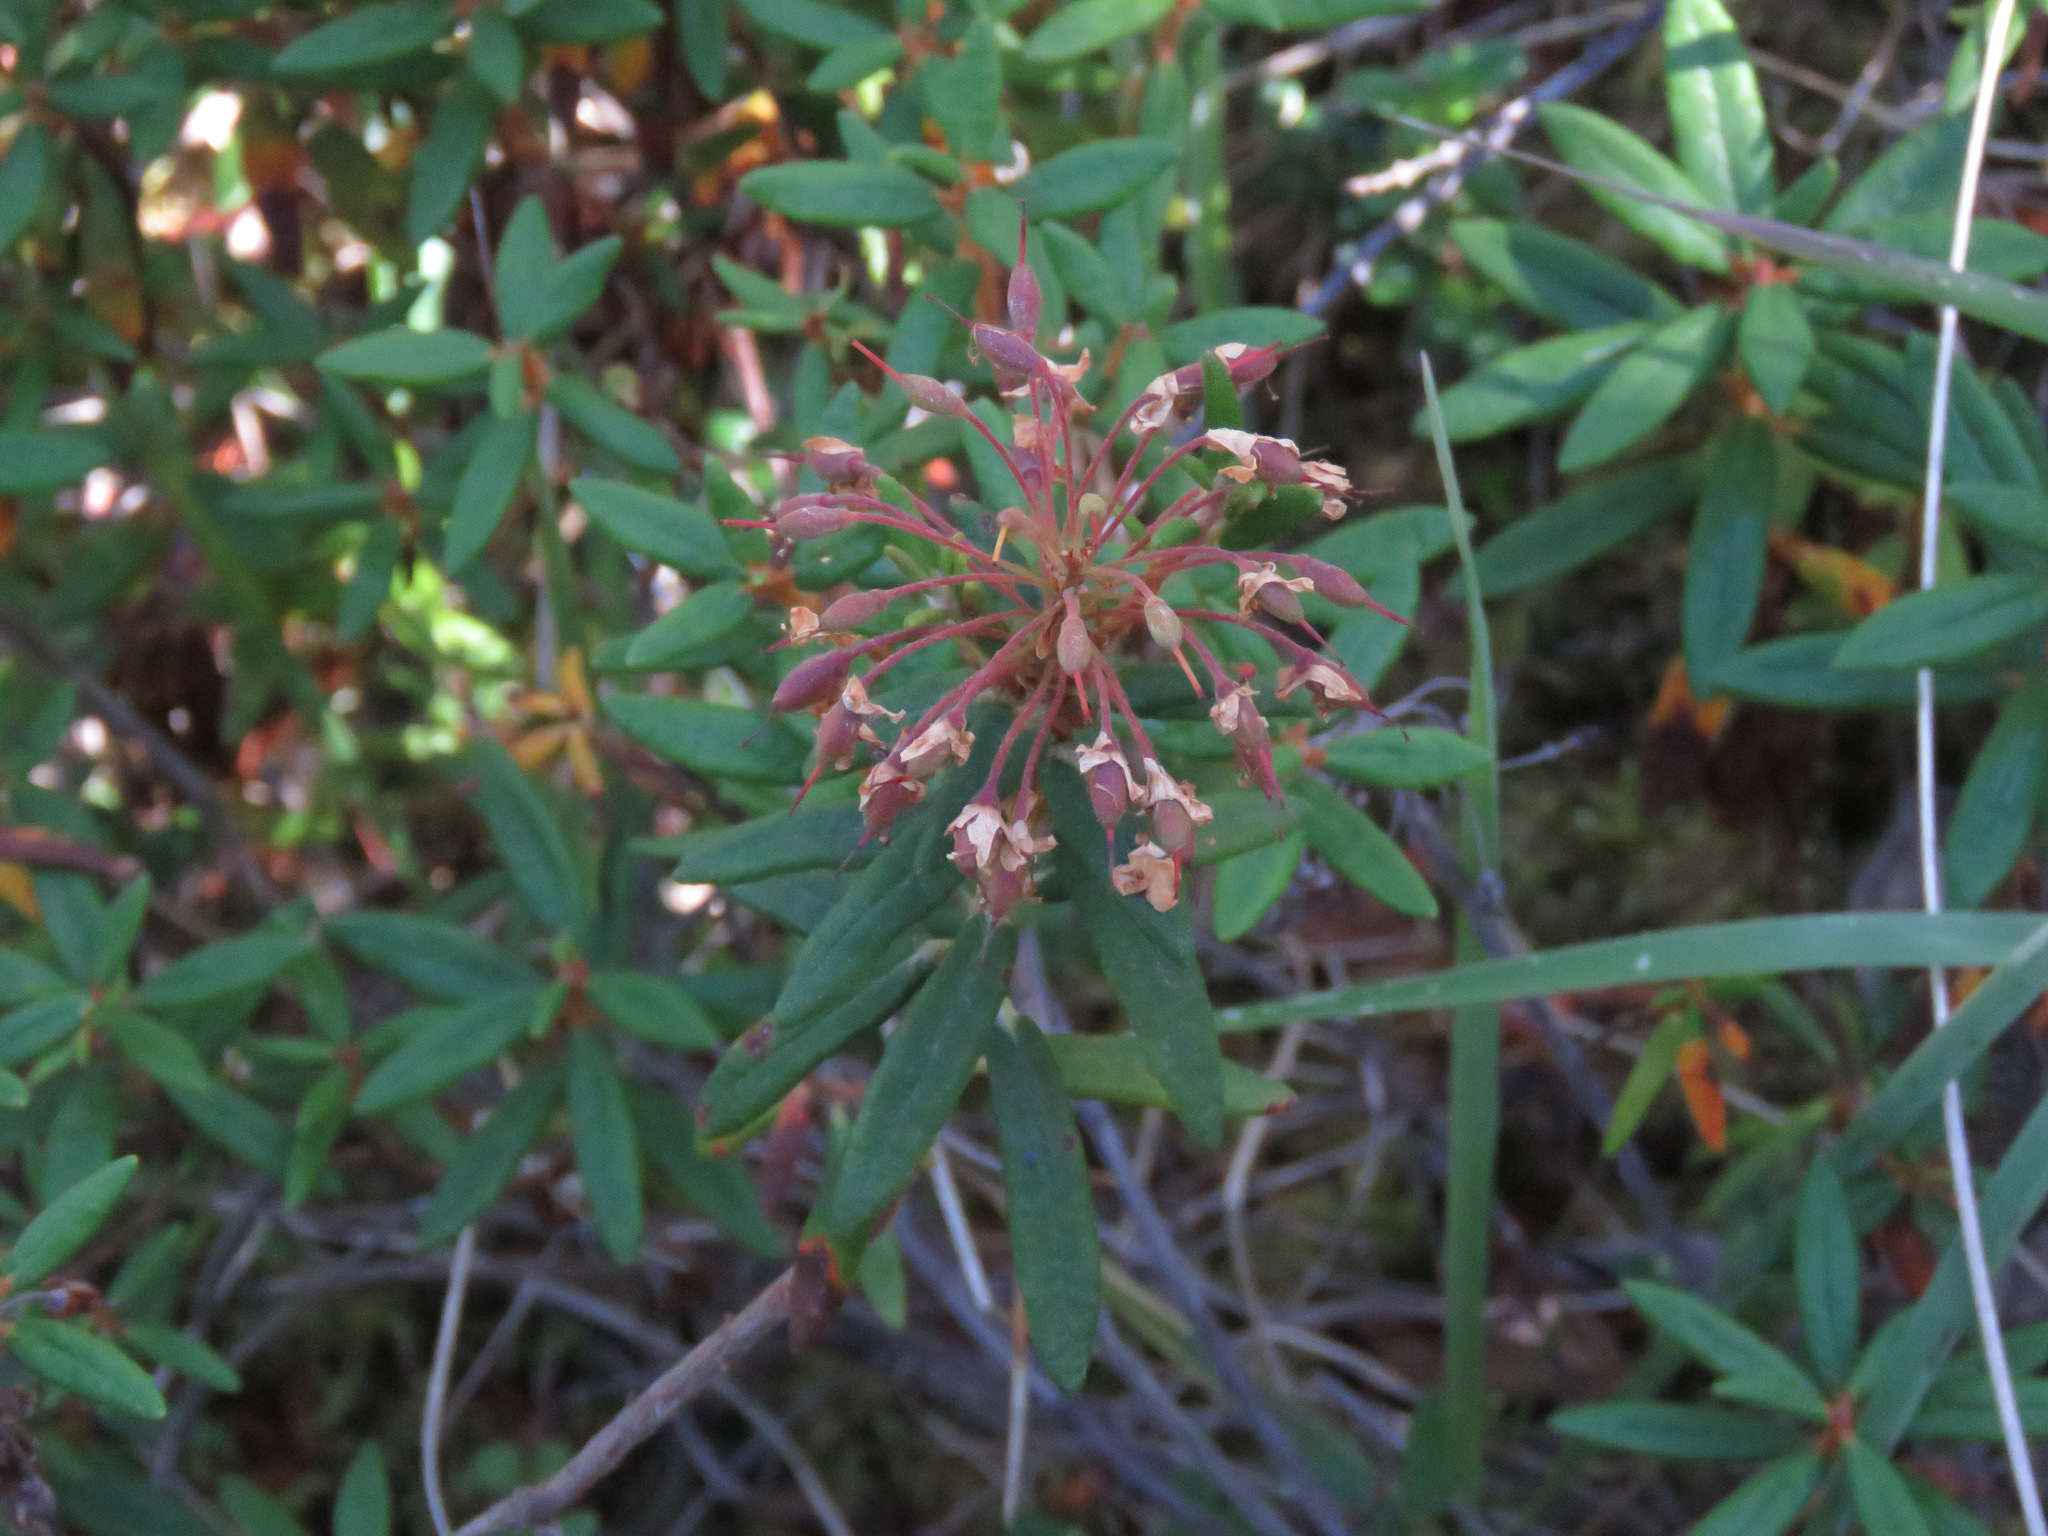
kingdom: Plantae
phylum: Tracheophyta
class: Magnoliopsida
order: Ericales
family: Ericaceae
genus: Rhododendron
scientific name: Rhododendron groenlandicum
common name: Bog labrador tea
